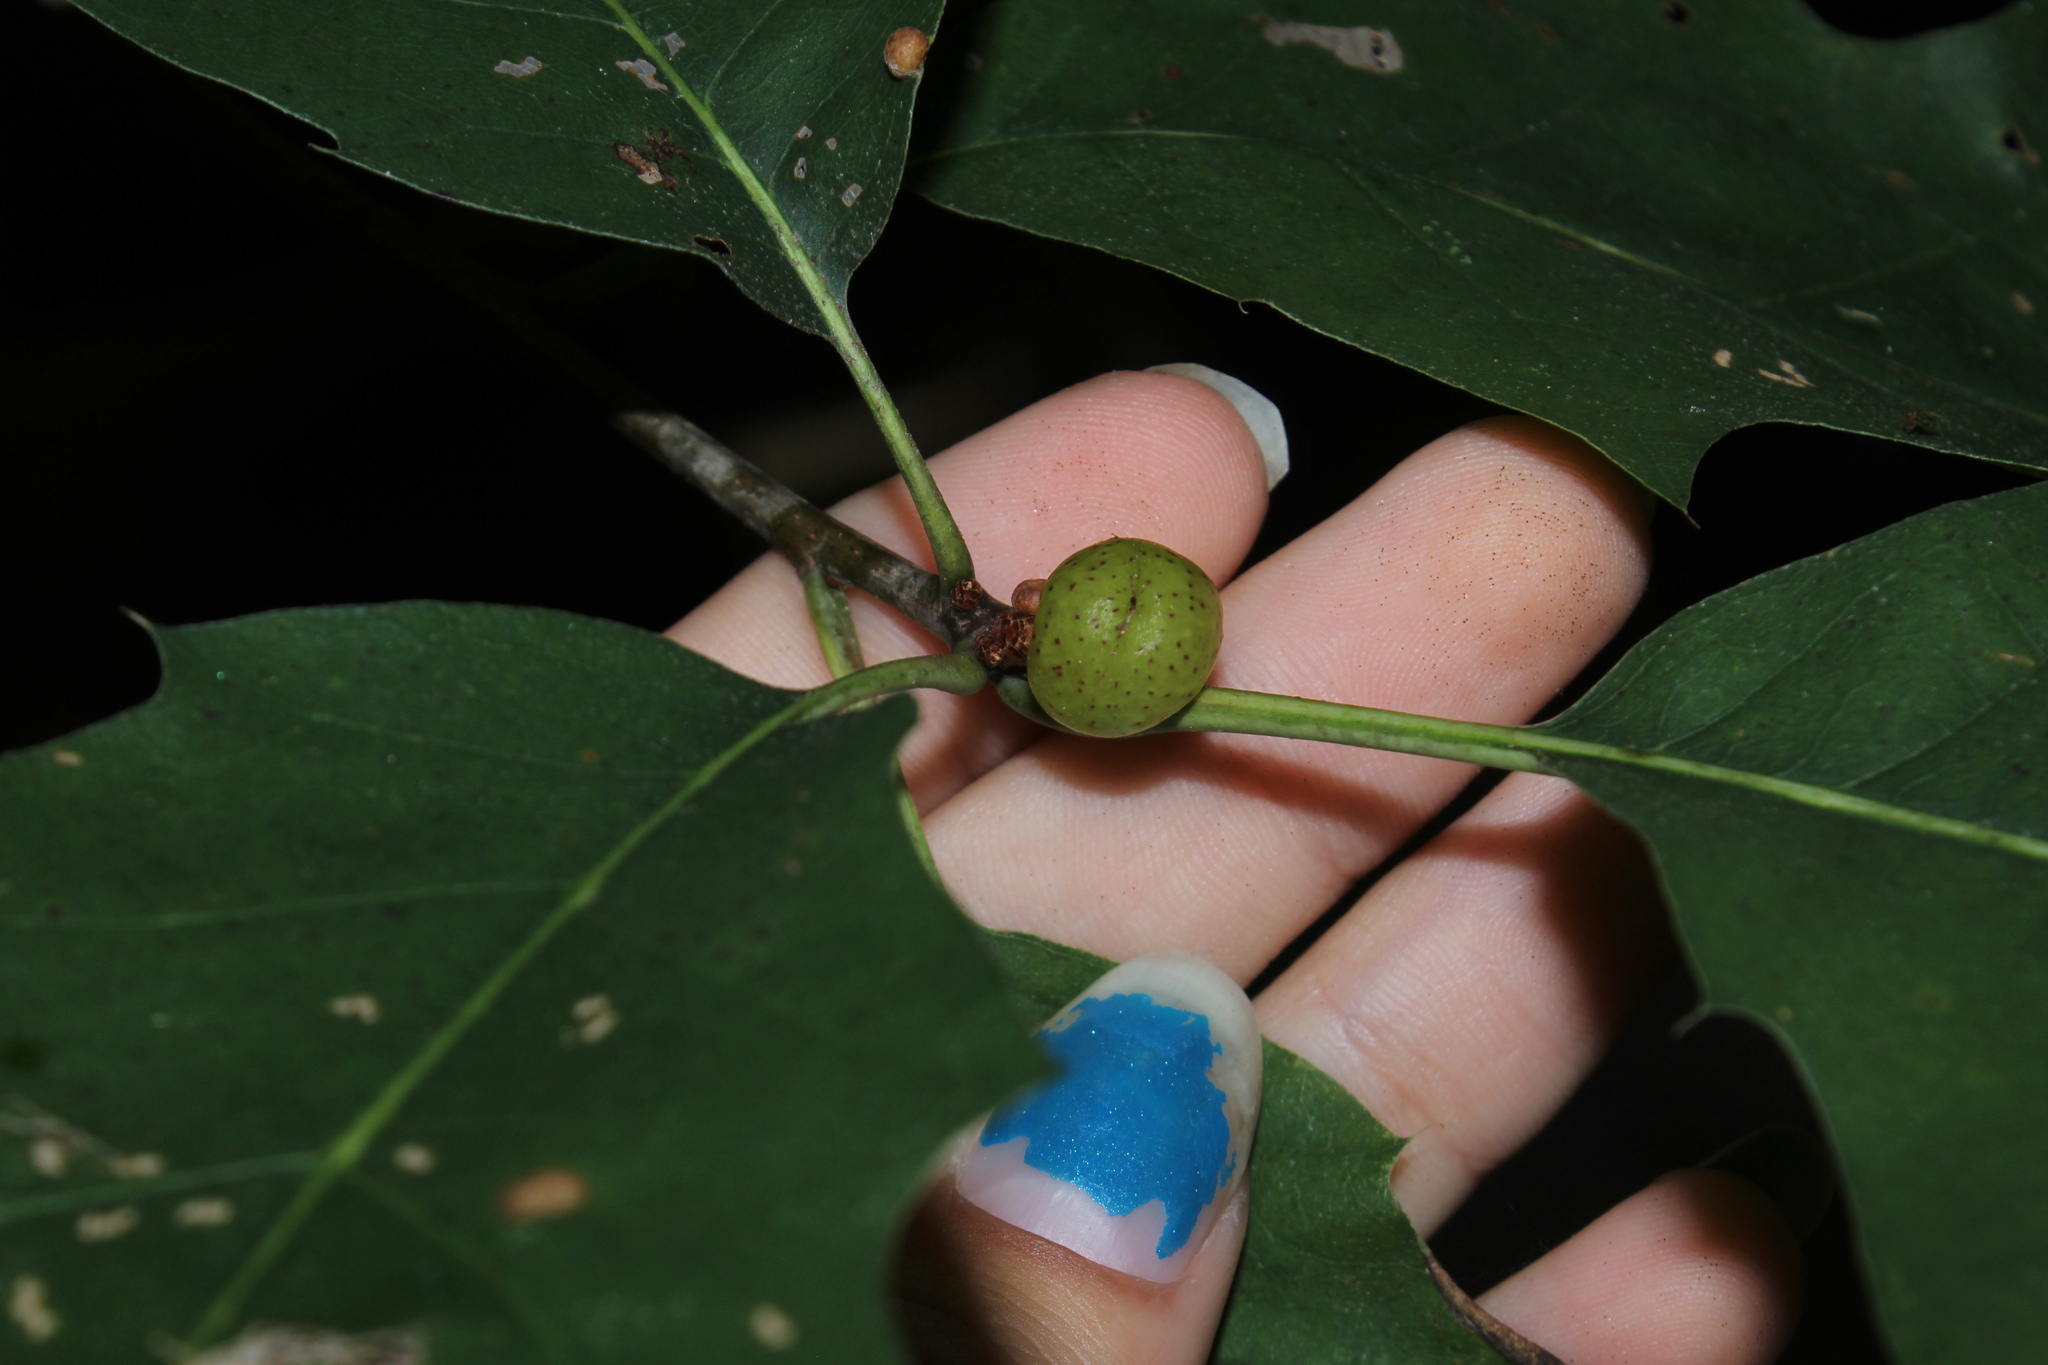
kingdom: Animalia
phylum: Arthropoda
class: Insecta
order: Hymenoptera
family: Cynipidae
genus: Amphibolips
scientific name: Amphibolips
